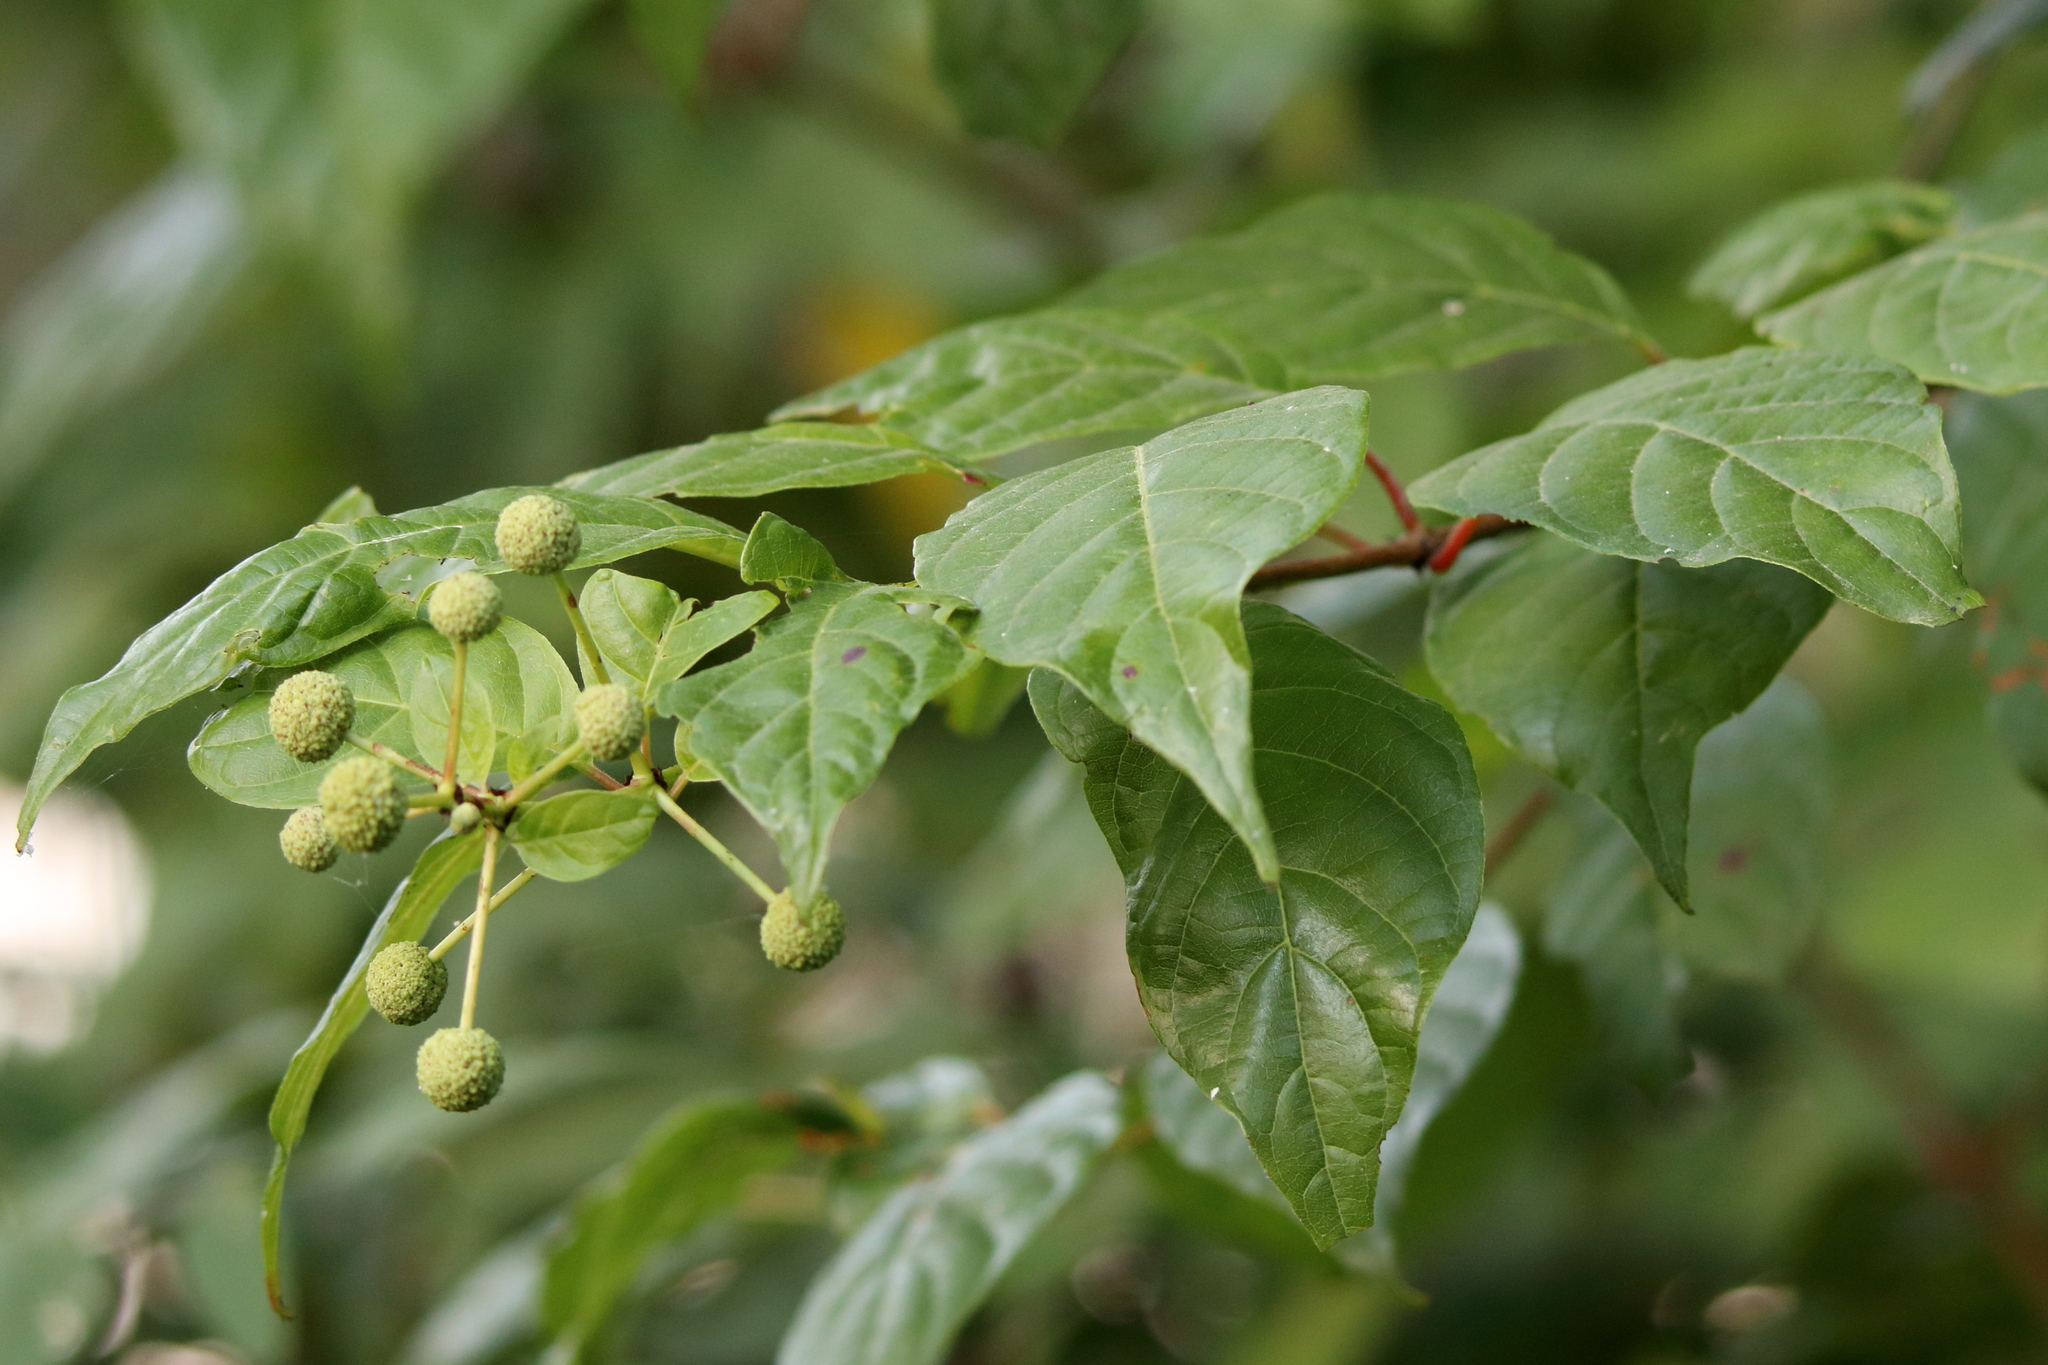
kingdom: Plantae
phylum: Tracheophyta
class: Magnoliopsida
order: Gentianales
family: Rubiaceae
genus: Cephalanthus
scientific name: Cephalanthus occidentalis
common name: Button-willow
